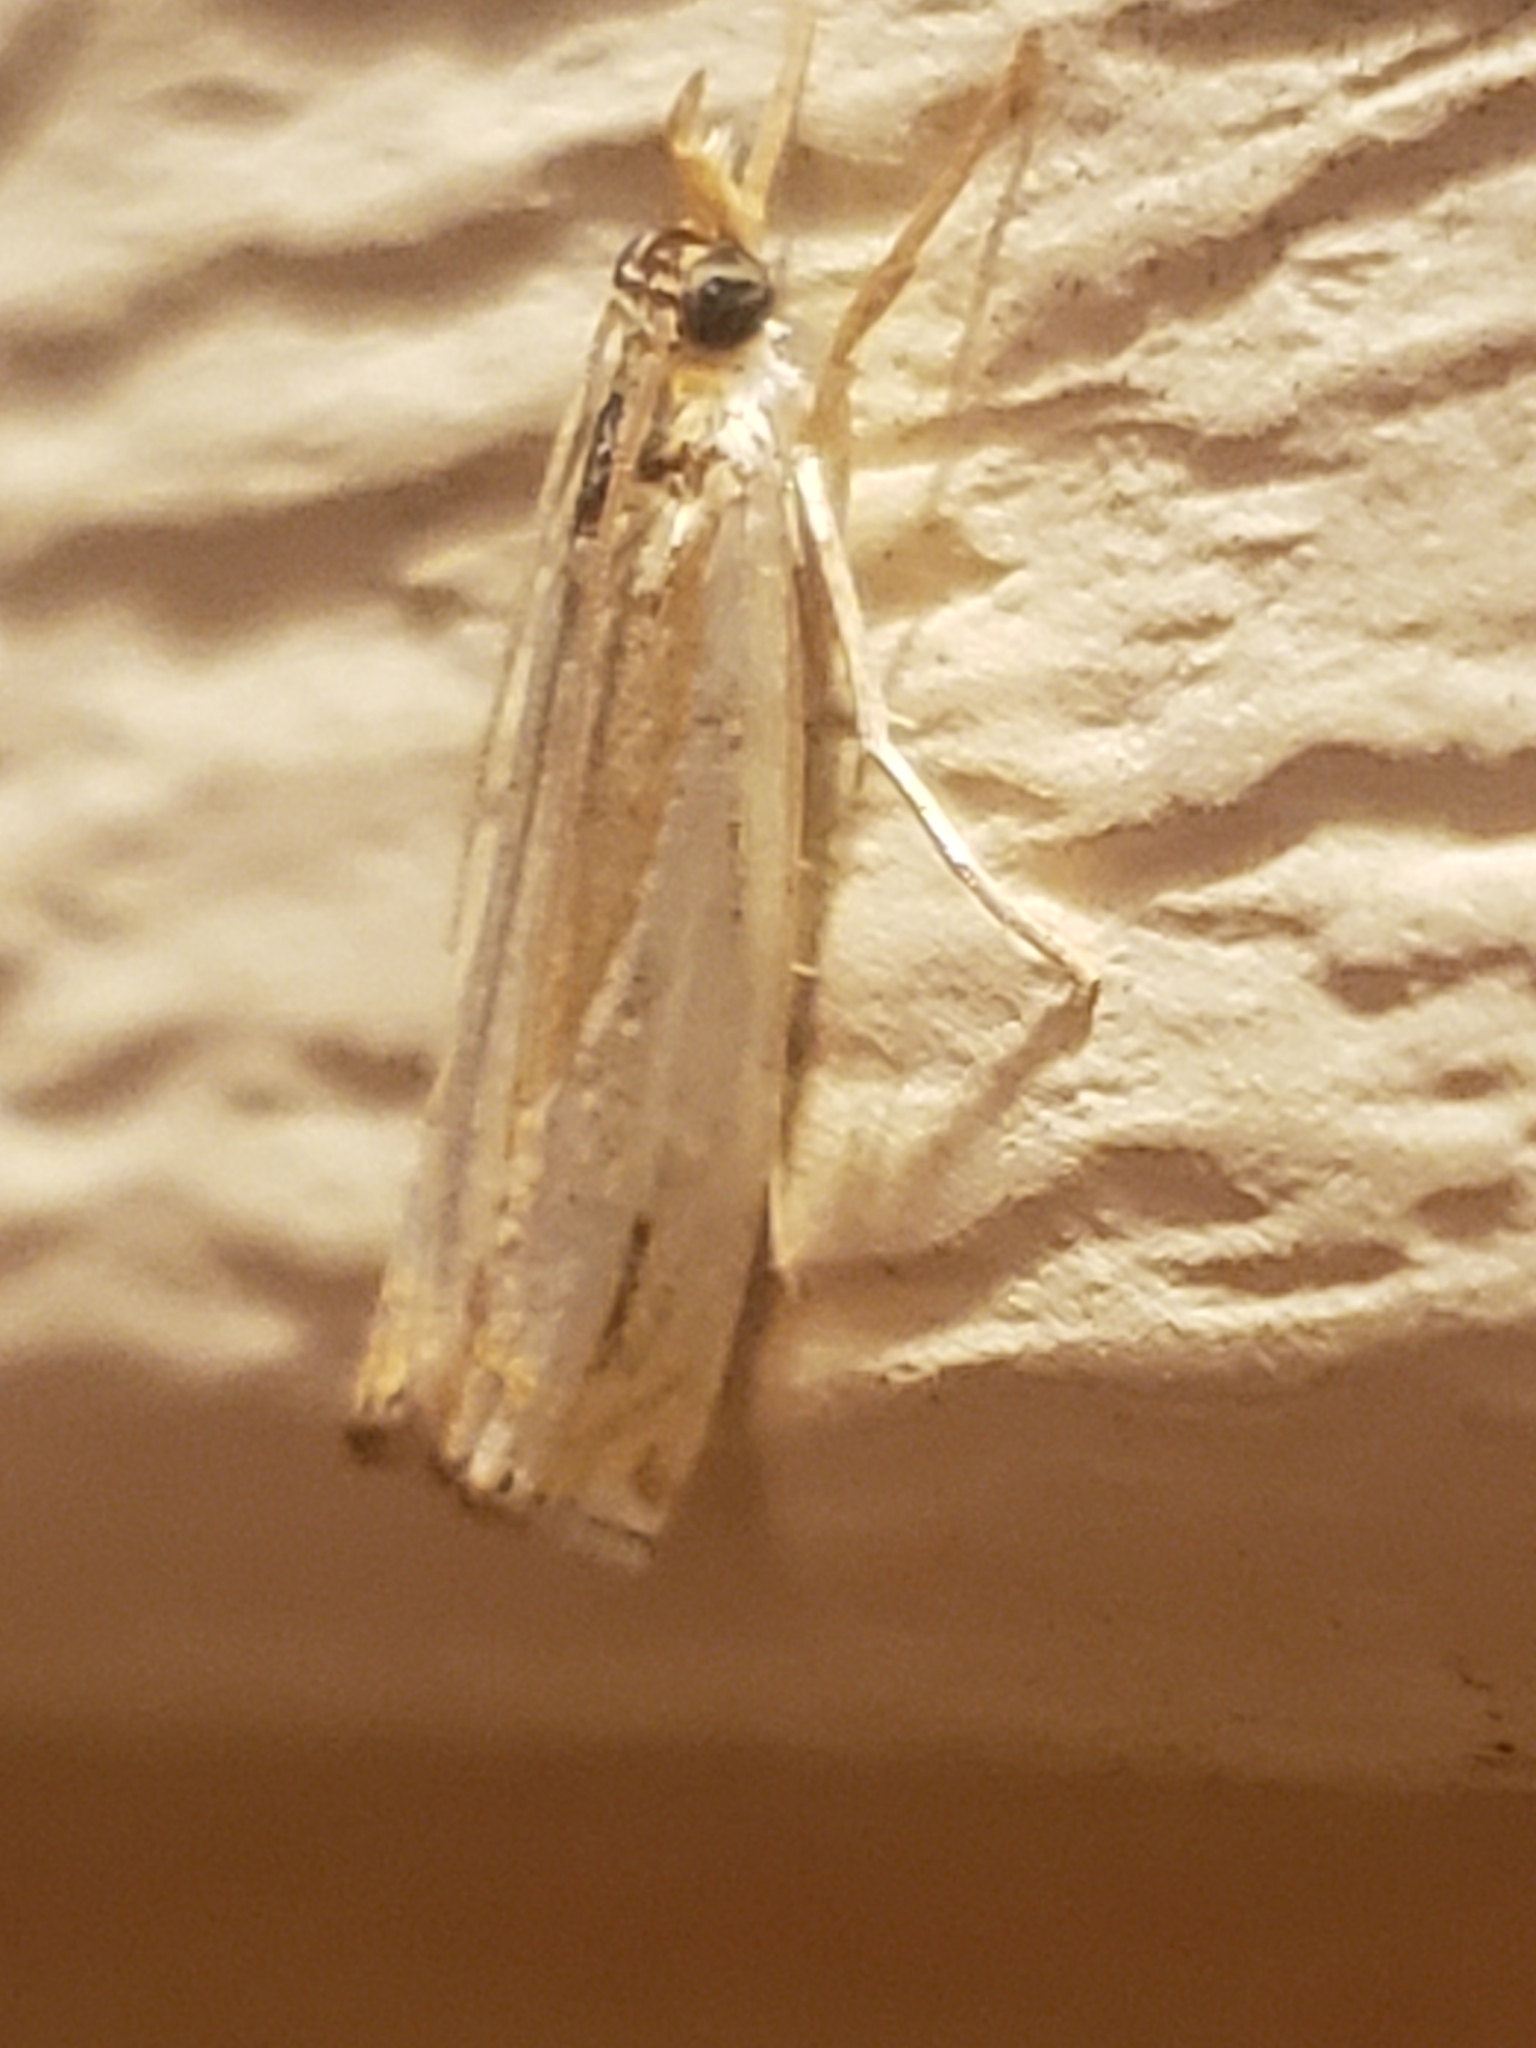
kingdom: Animalia
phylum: Arthropoda
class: Insecta
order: Lepidoptera
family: Crambidae
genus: Crambus
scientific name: Crambus agitatellus
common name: Double-banded grass-veneer
